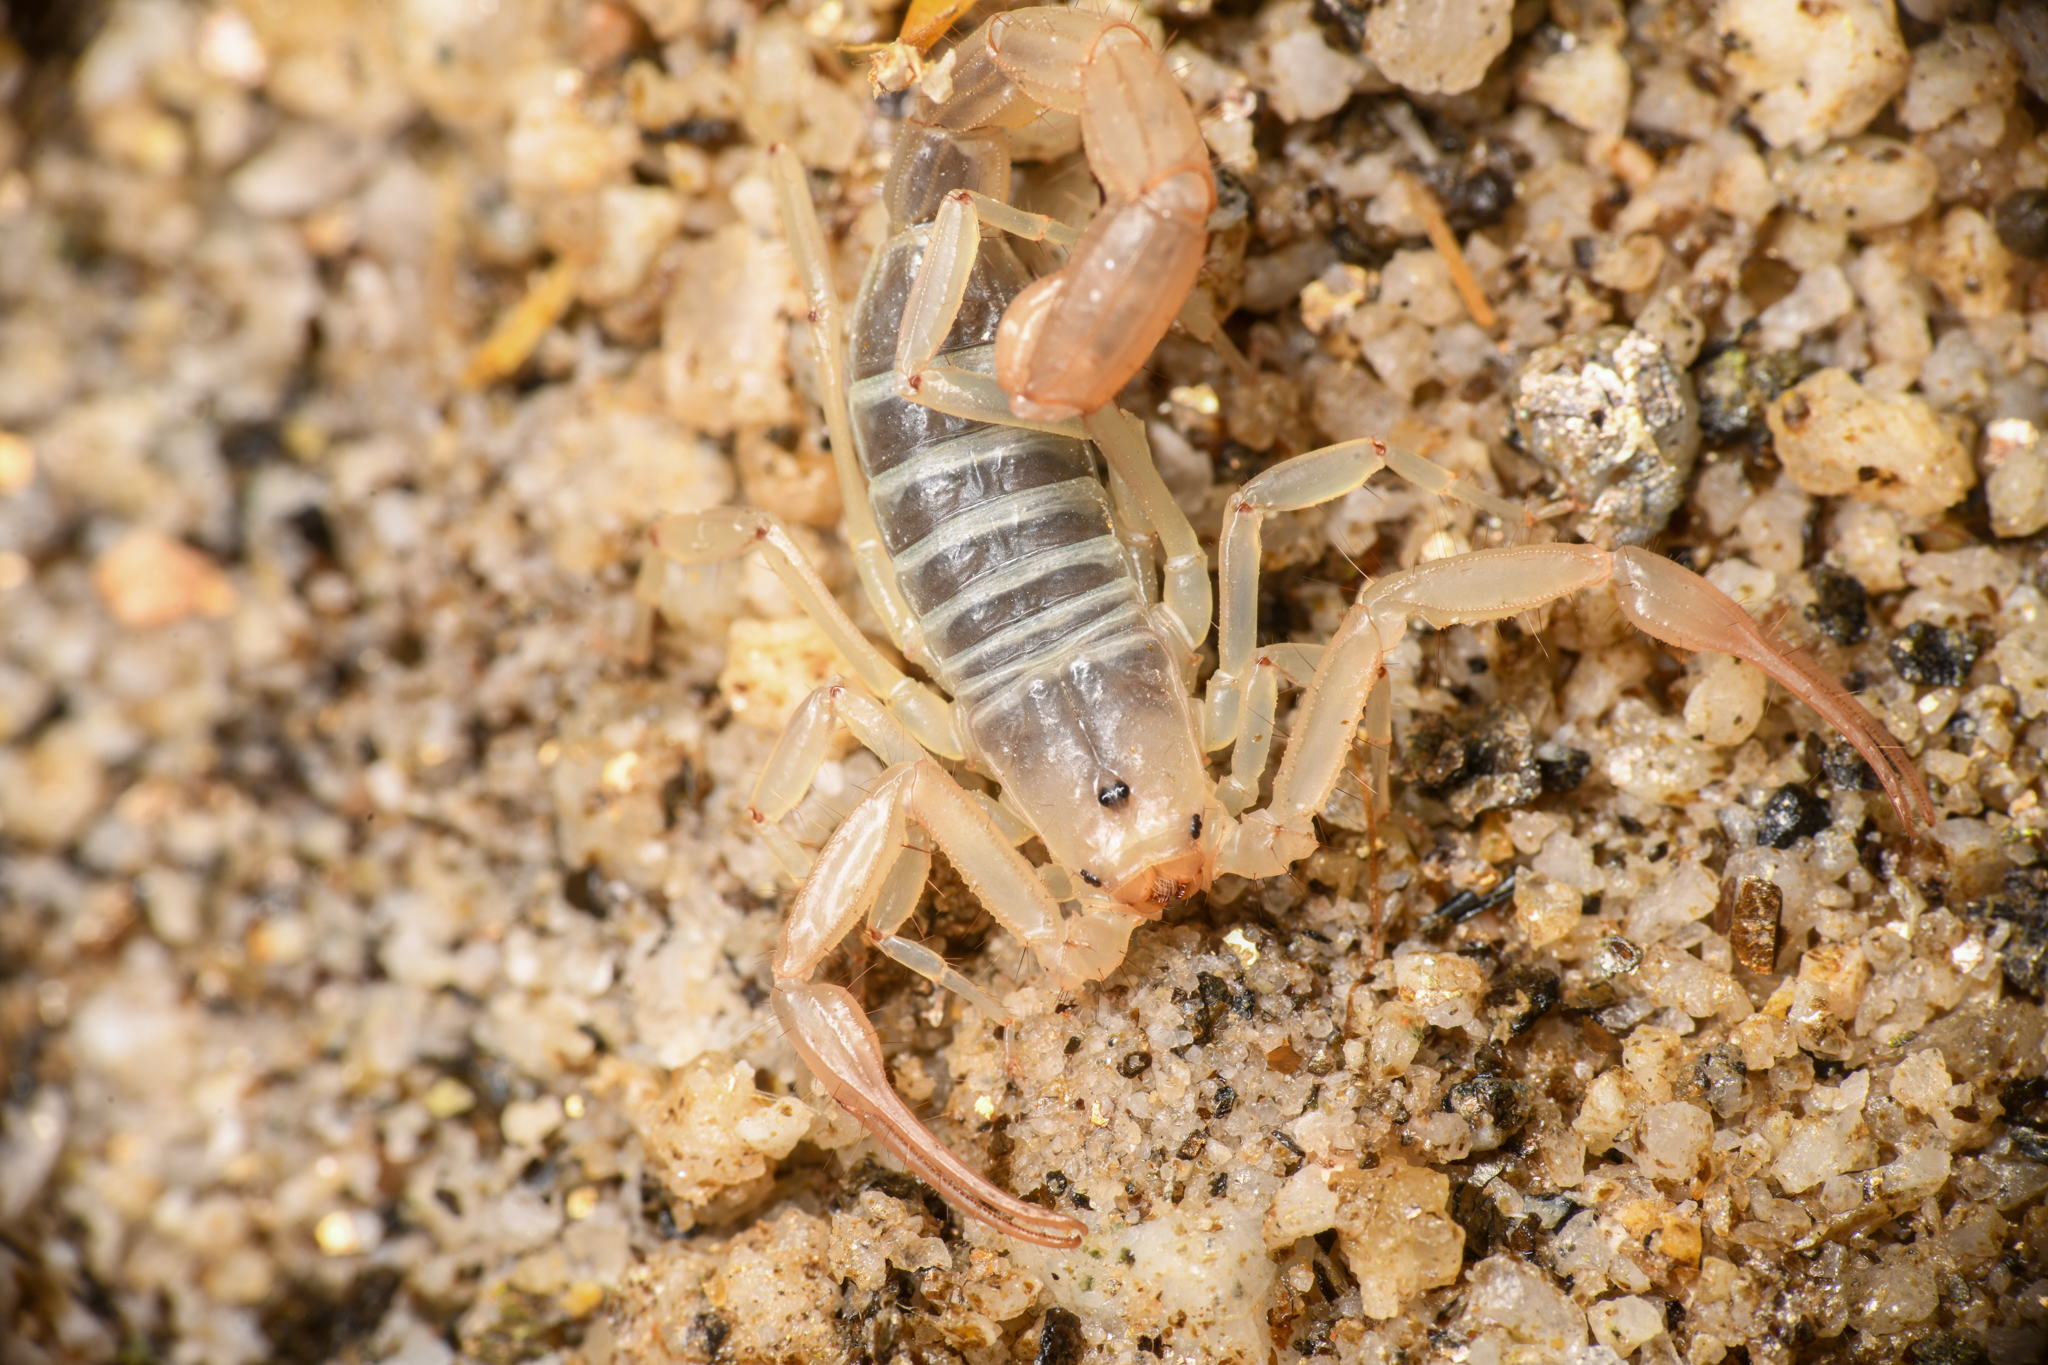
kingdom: Animalia
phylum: Arthropoda
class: Arachnida
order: Scorpiones
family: Vaejovidae
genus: Stahnkeus
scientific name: Stahnkeus subtilimanus
